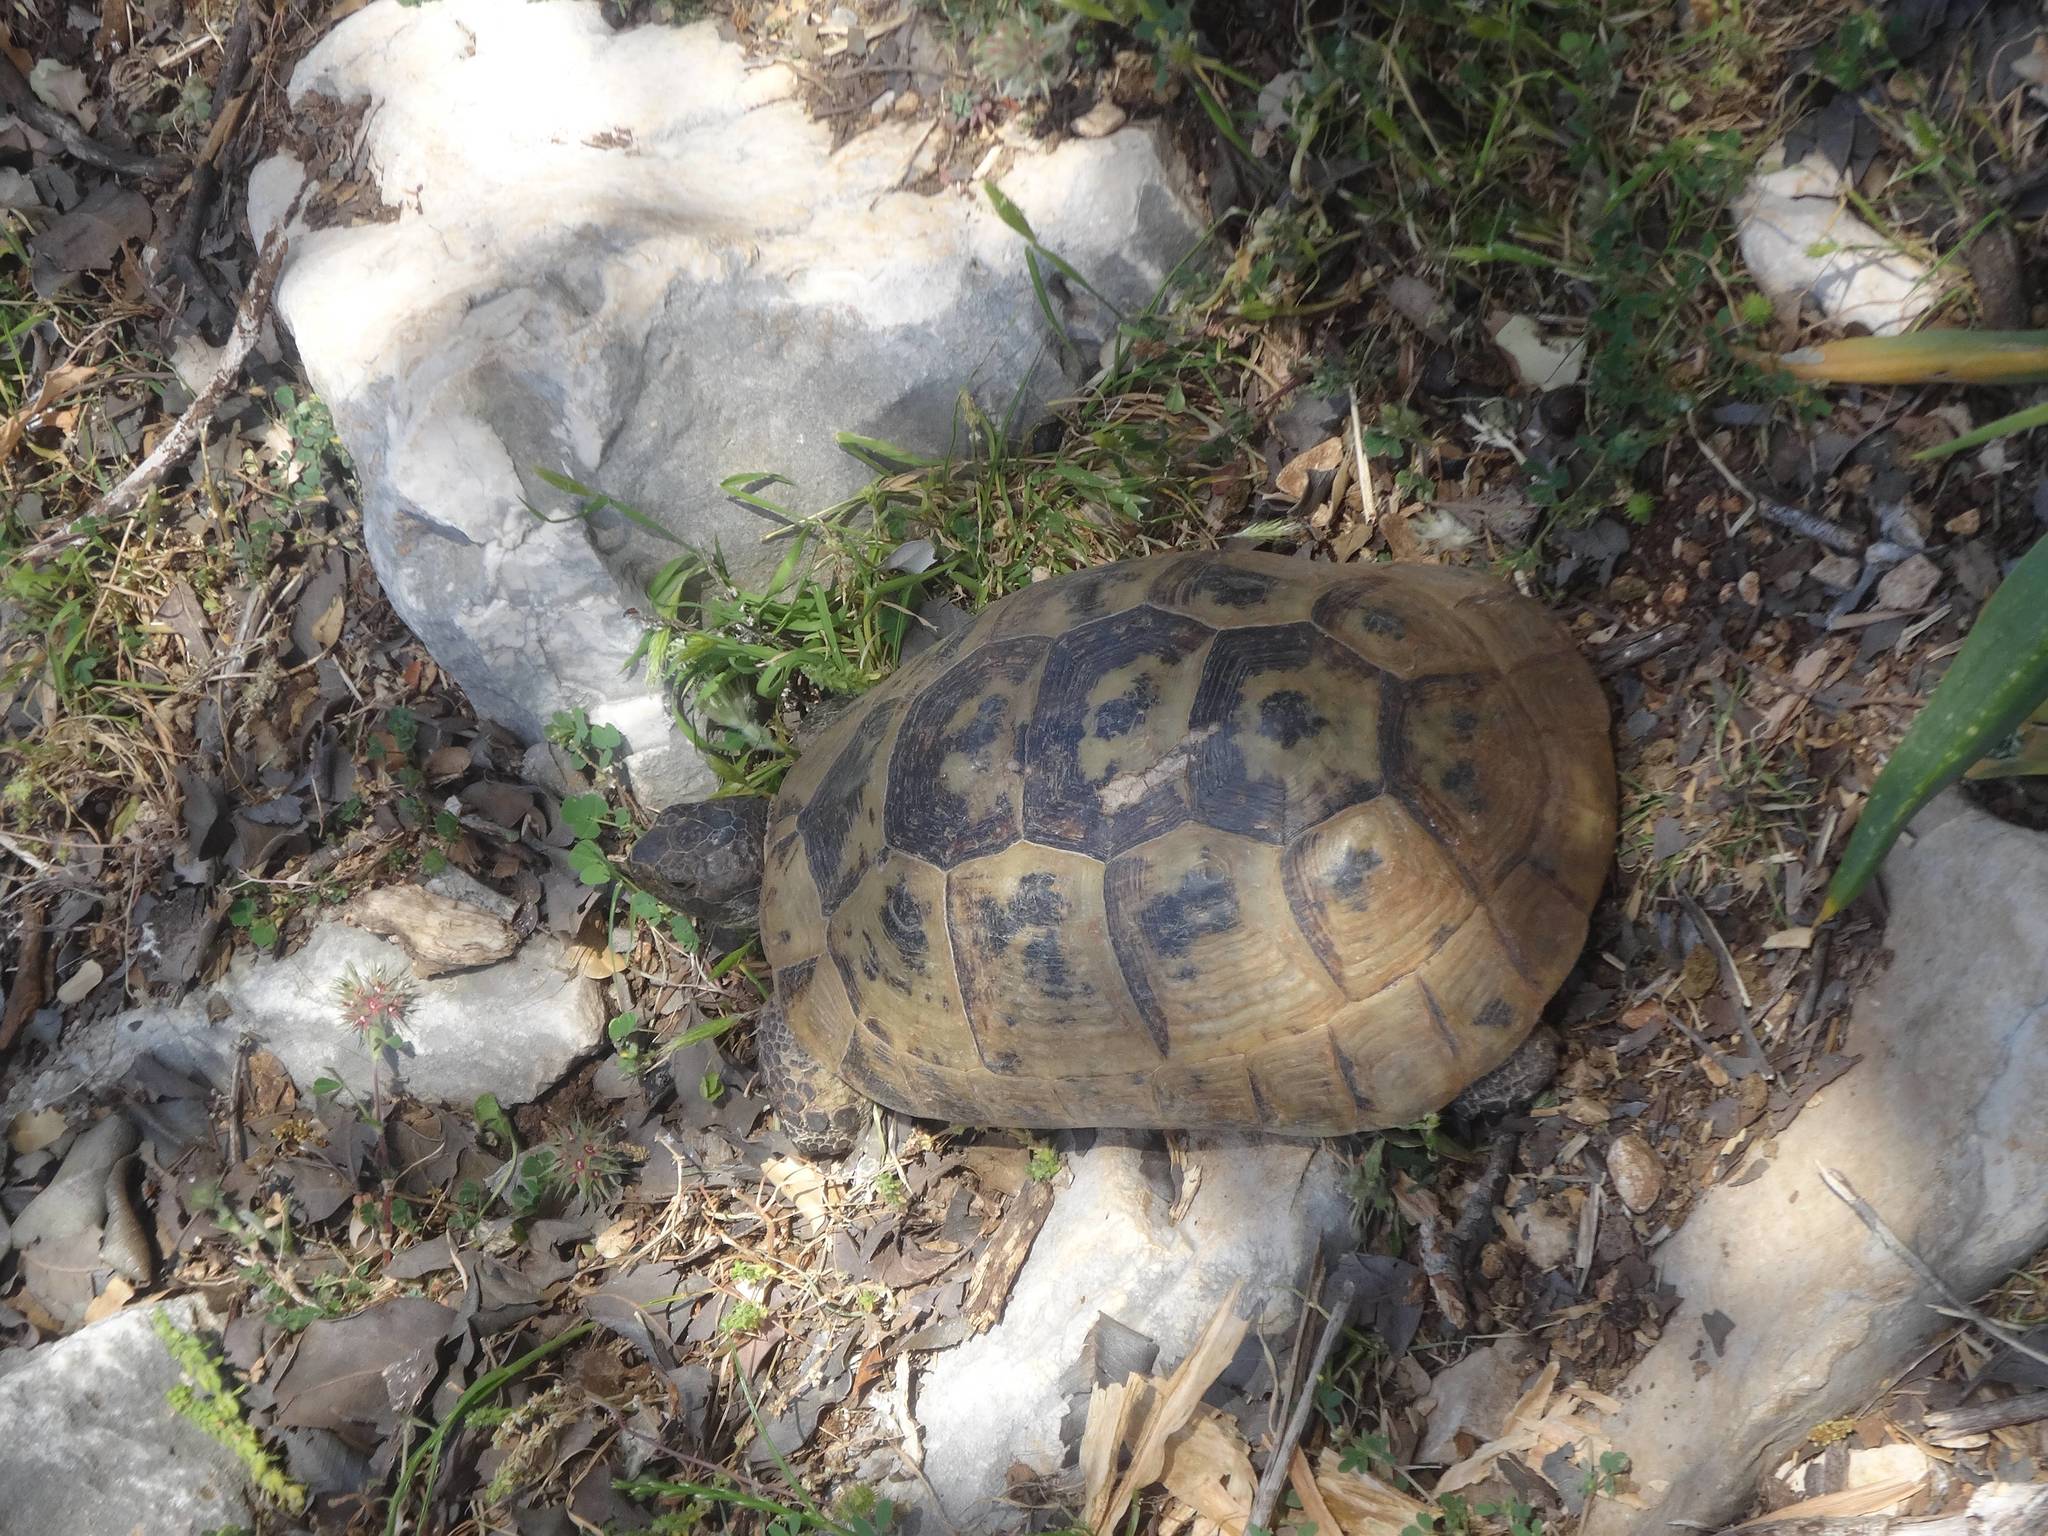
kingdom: Animalia
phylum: Chordata
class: Testudines
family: Testudinidae
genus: Testudo
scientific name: Testudo graeca
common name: Common tortoise
